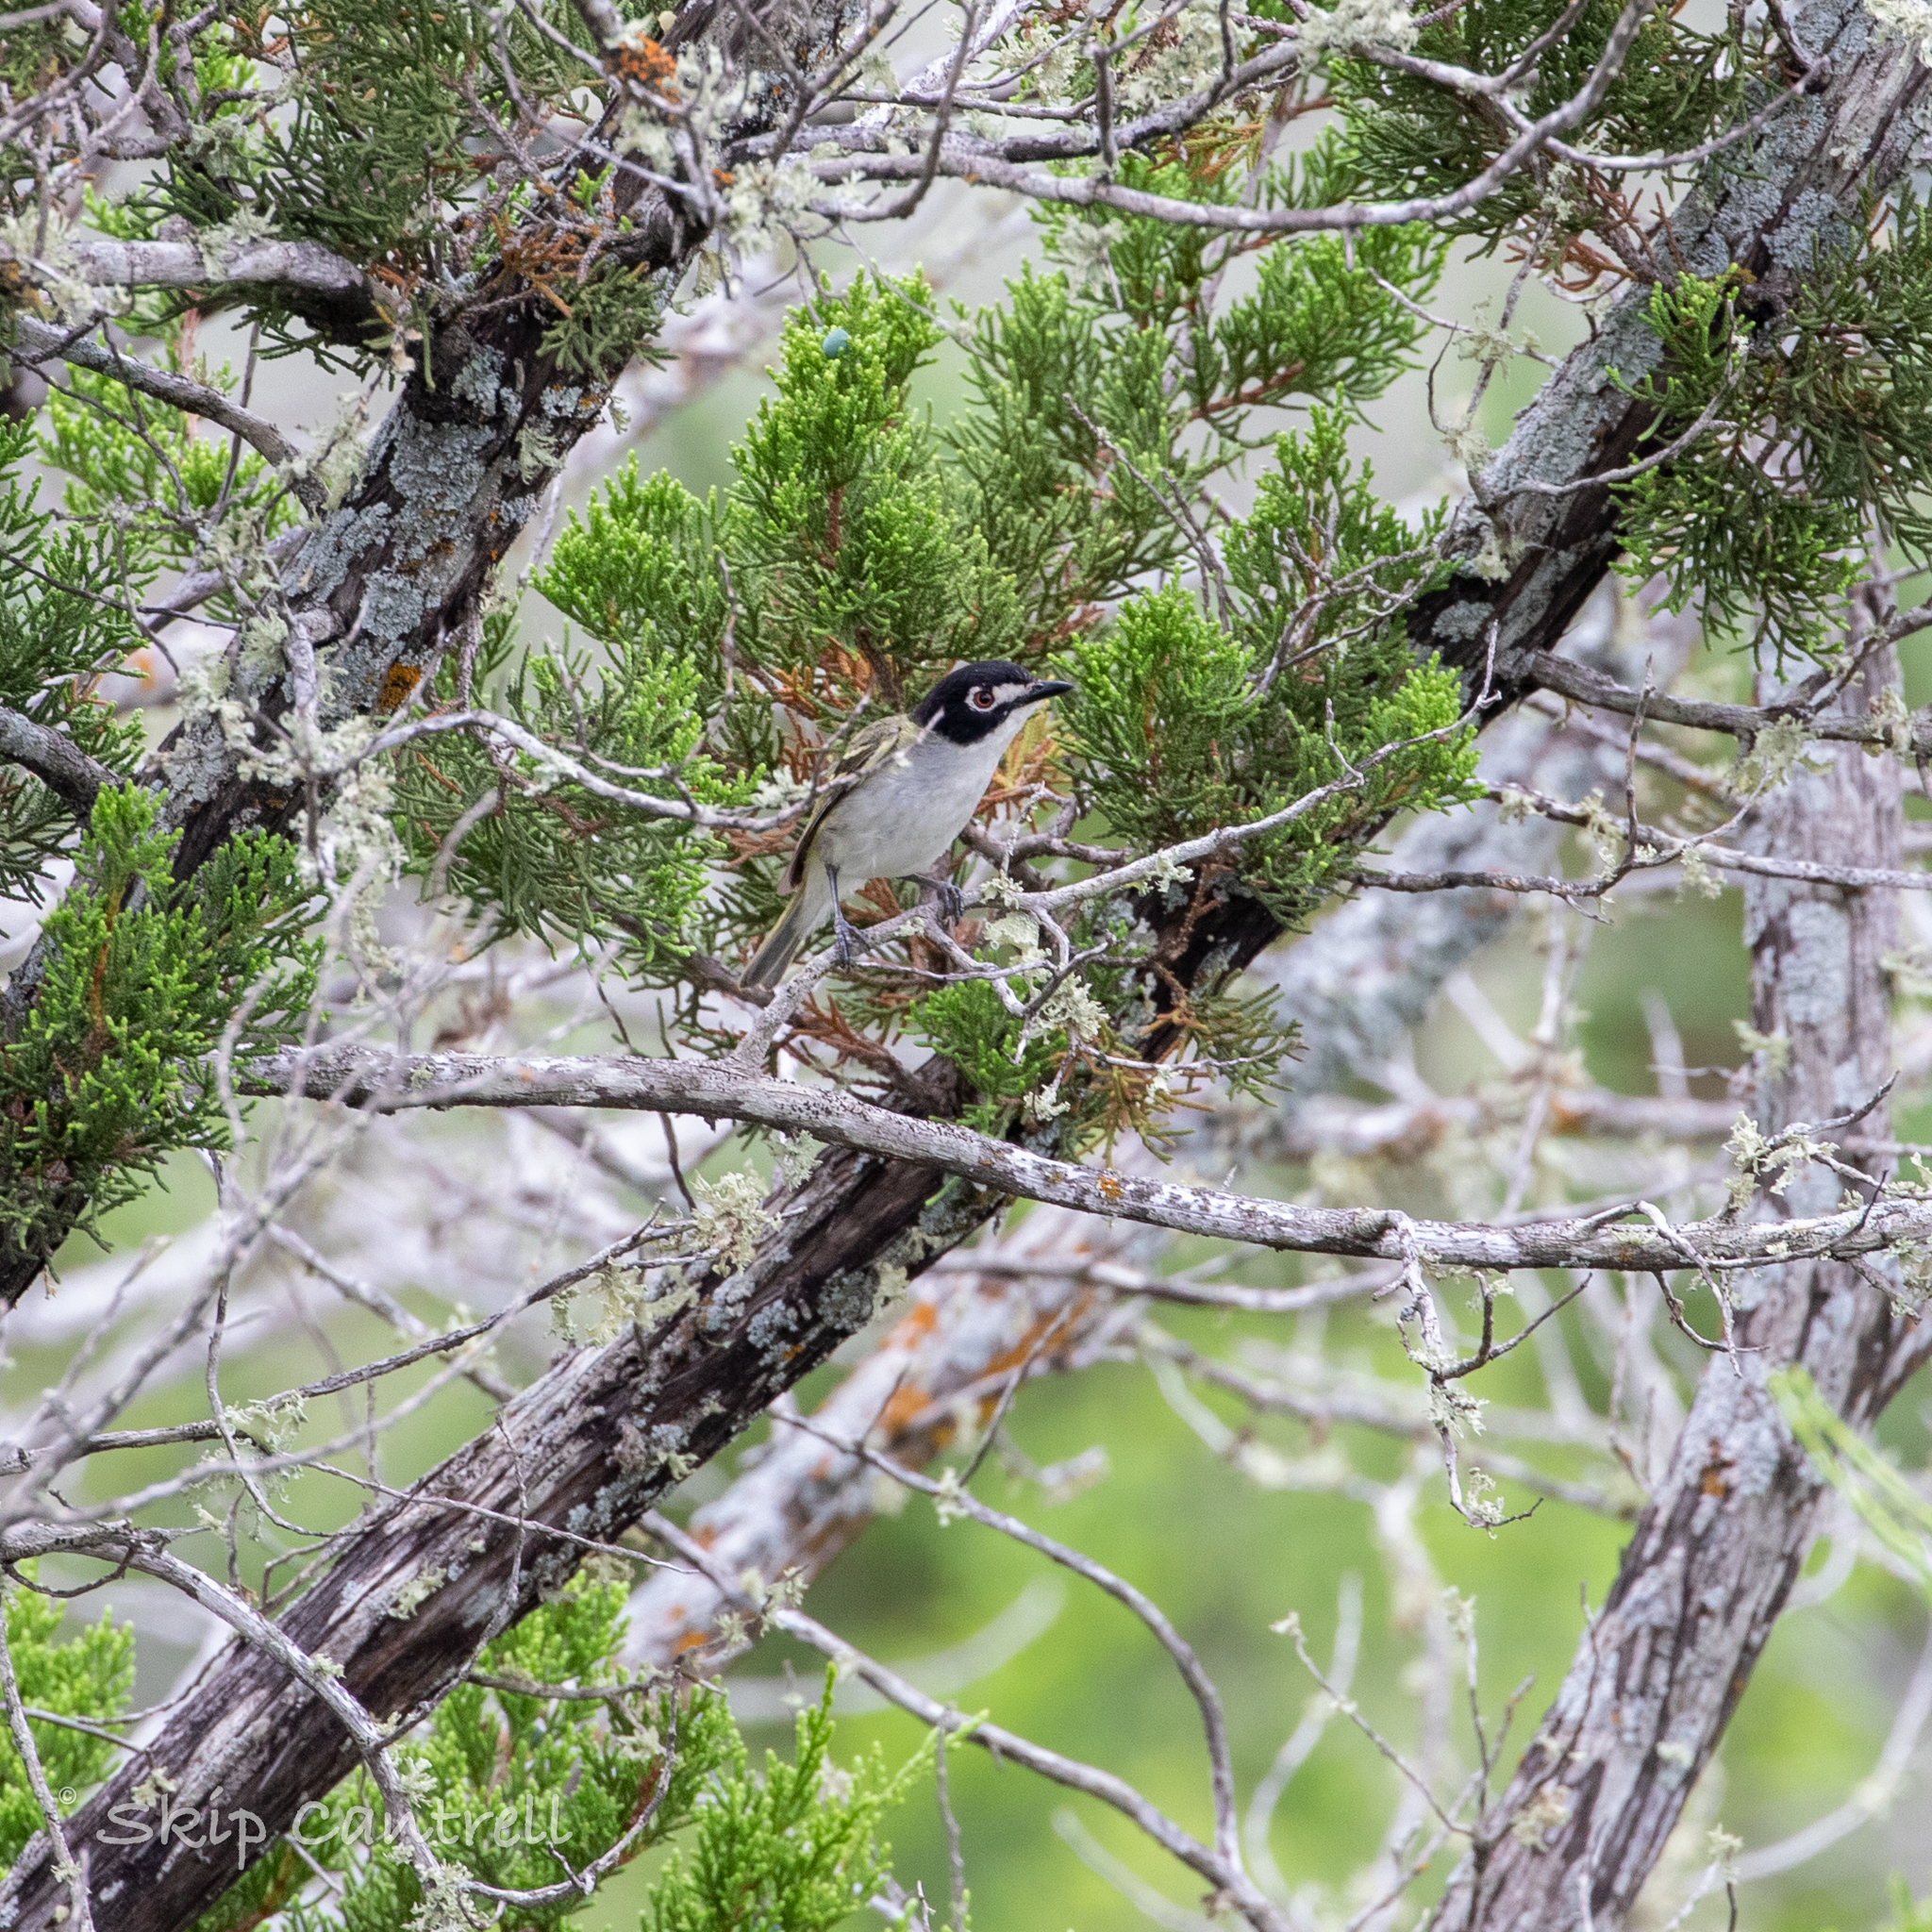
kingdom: Animalia
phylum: Chordata
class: Aves
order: Passeriformes
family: Vireonidae
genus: Vireo
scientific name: Vireo atricapilla
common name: Black-capped vireo
